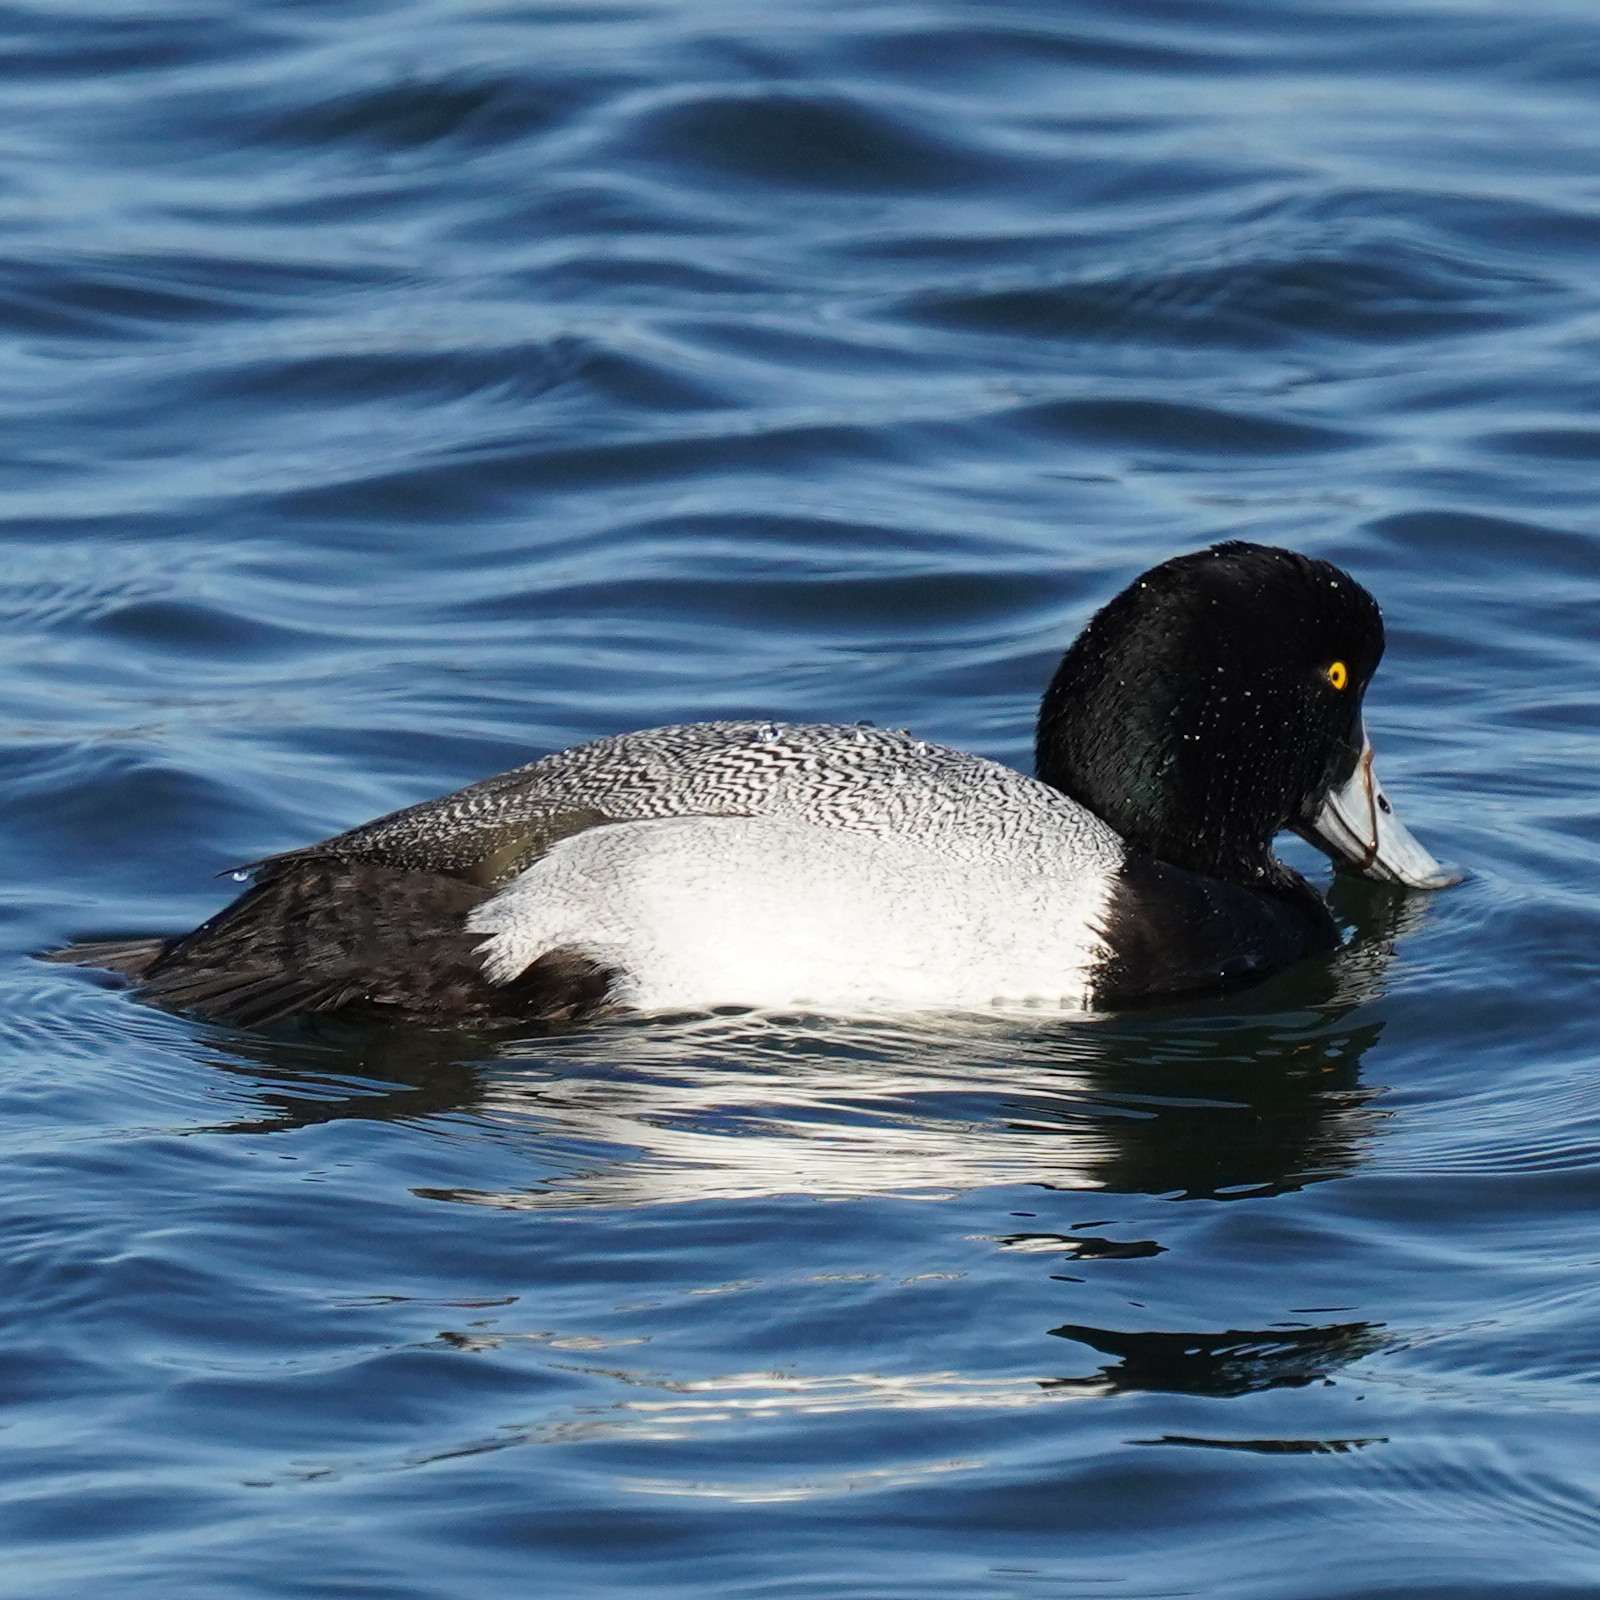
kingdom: Animalia
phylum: Chordata
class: Aves
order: Anseriformes
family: Anatidae
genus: Aythya
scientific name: Aythya marila
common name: Greater scaup
